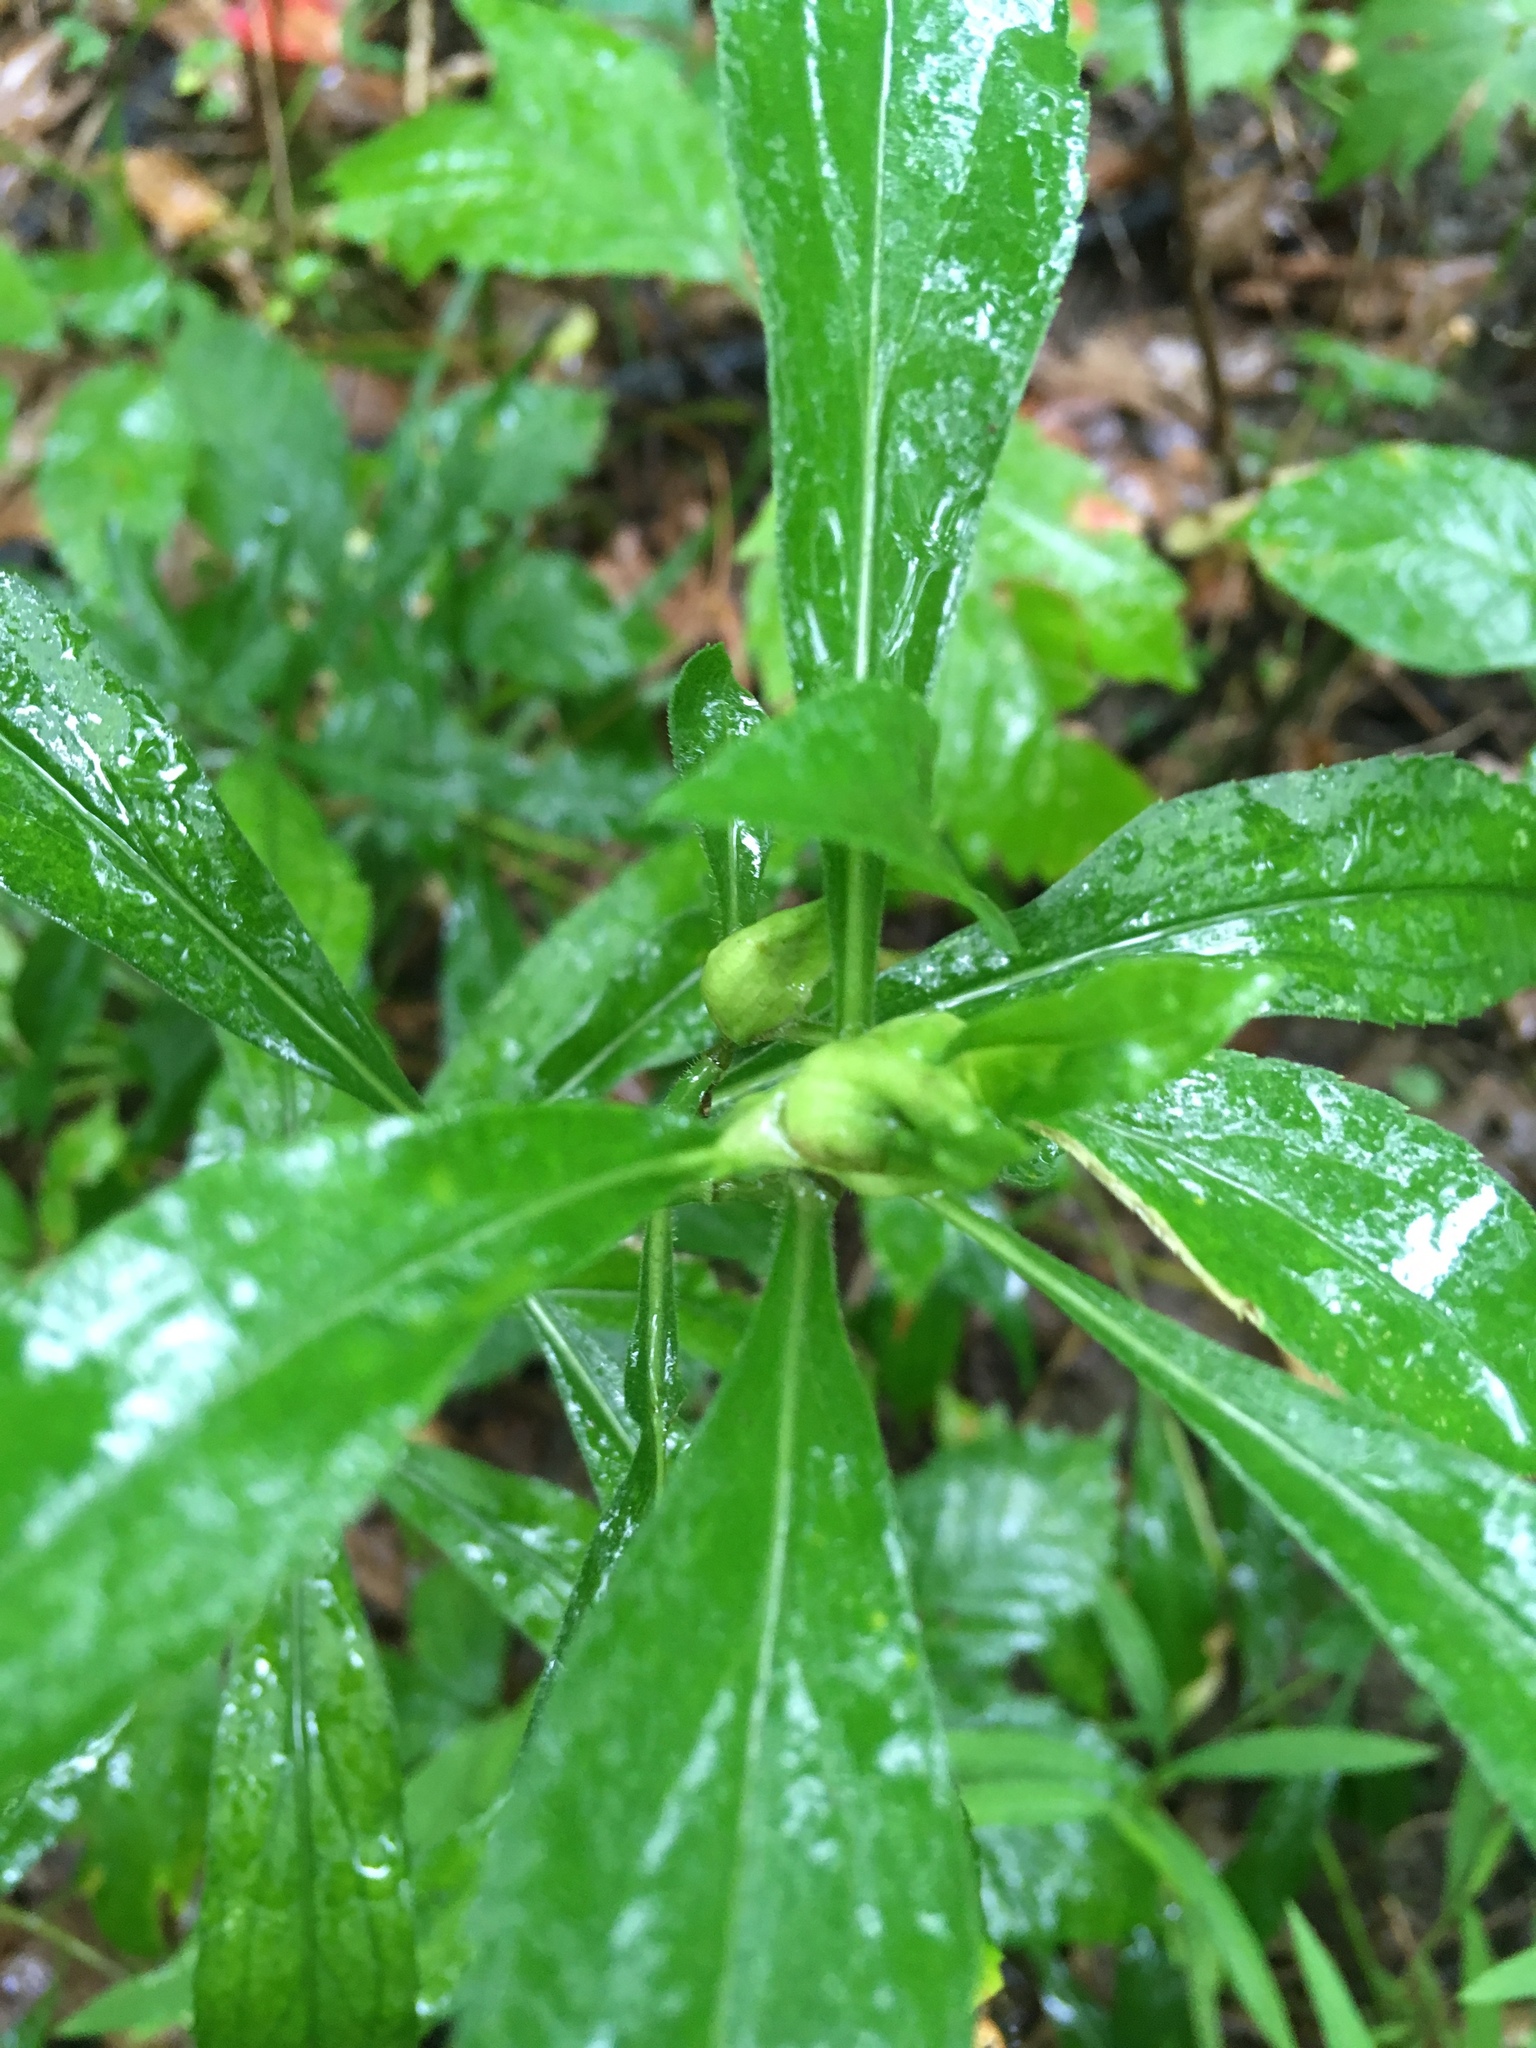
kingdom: Animalia
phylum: Arthropoda
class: Insecta
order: Diptera
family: Cecidomyiidae
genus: Dasineura
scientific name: Dasineura folliculi
